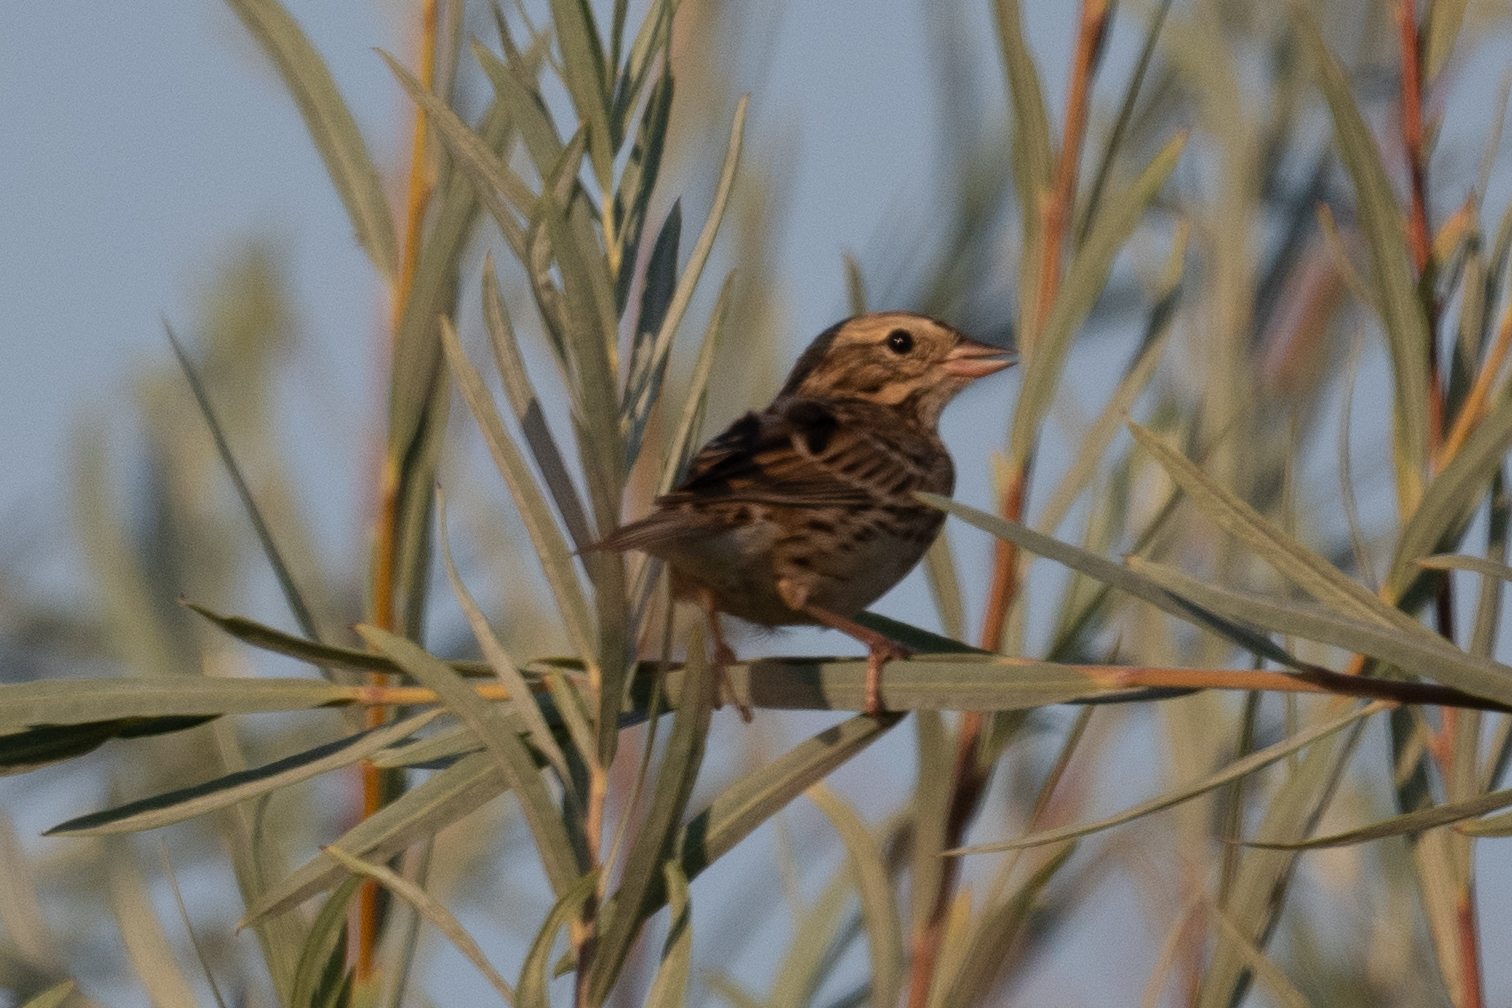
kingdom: Animalia
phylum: Chordata
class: Aves
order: Passeriformes
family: Passerellidae
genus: Passerculus
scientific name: Passerculus sandwichensis
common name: Savannah sparrow
